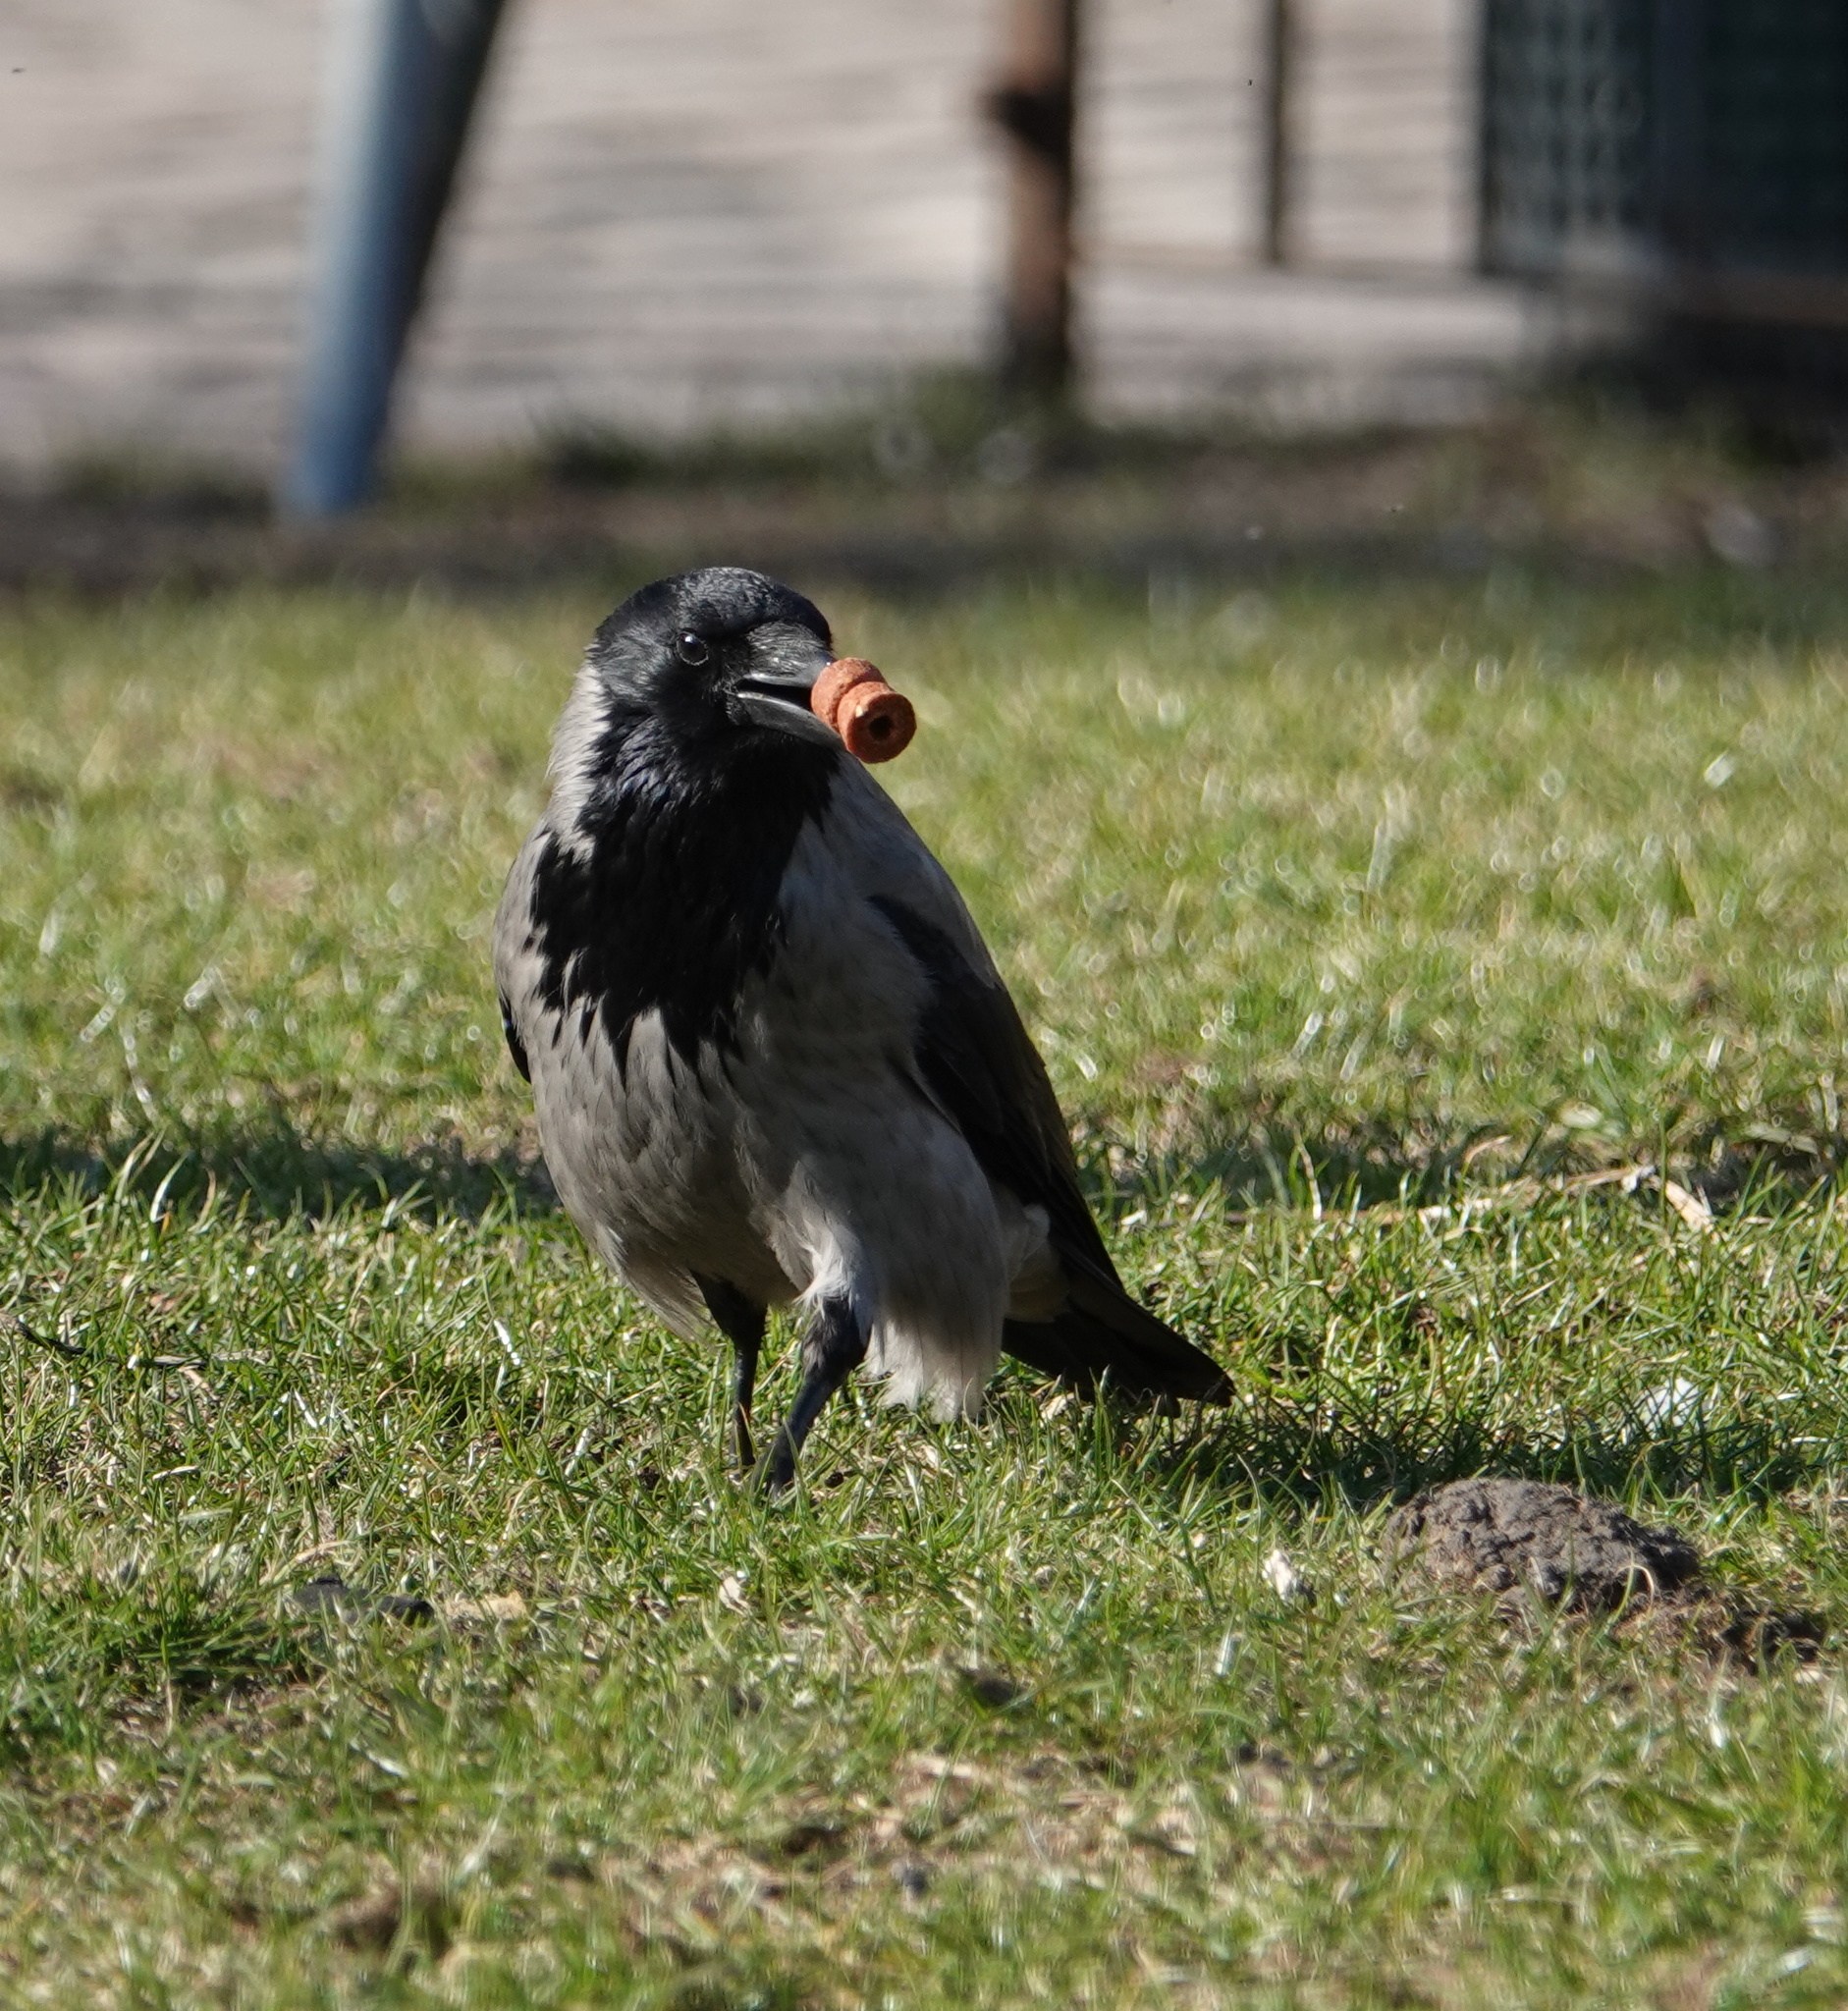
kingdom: Animalia
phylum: Chordata
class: Aves
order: Passeriformes
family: Corvidae
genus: Corvus
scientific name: Corvus cornix
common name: Hooded crow
